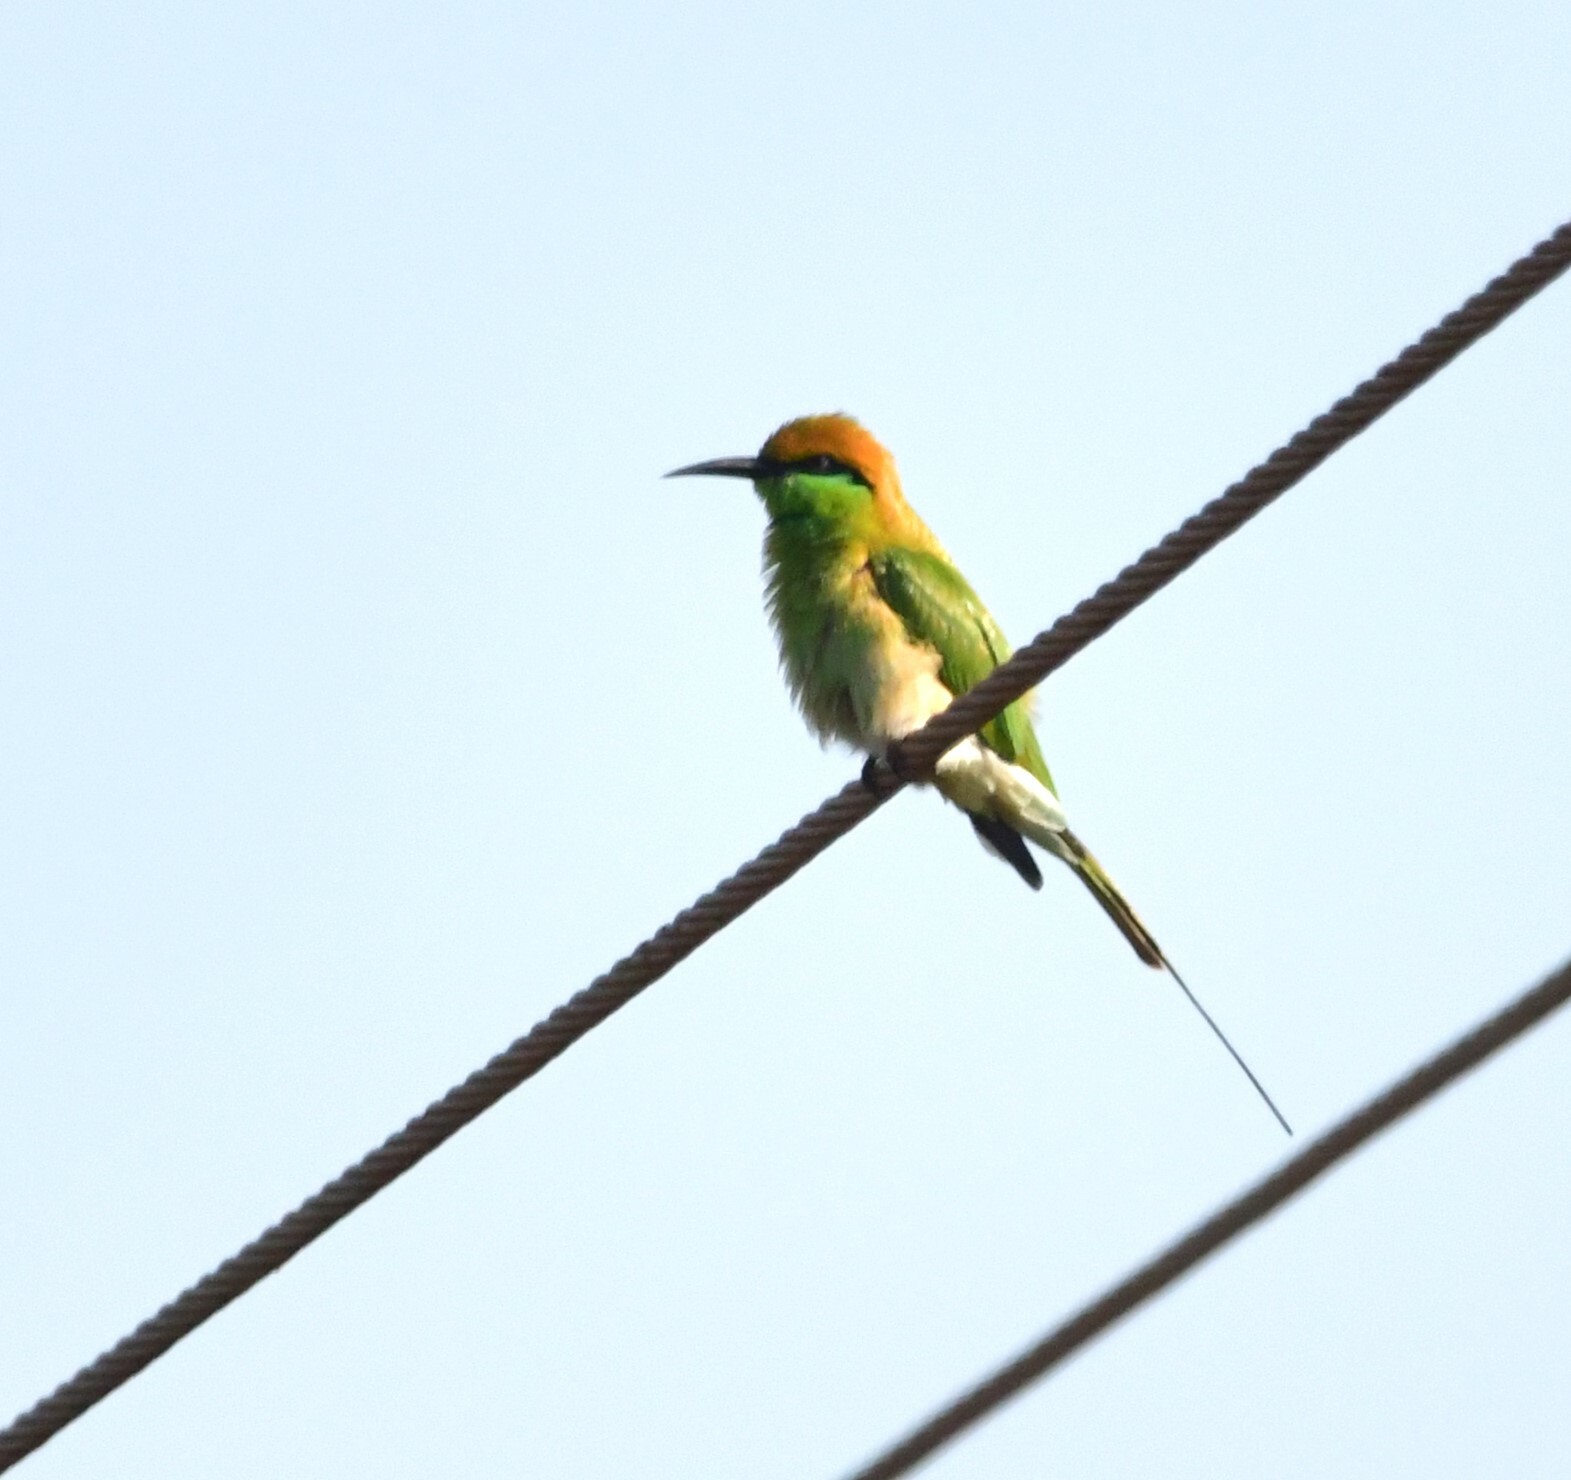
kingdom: Animalia
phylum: Chordata
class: Aves
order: Coraciiformes
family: Meropidae
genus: Merops
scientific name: Merops orientalis
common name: Green bee-eater
